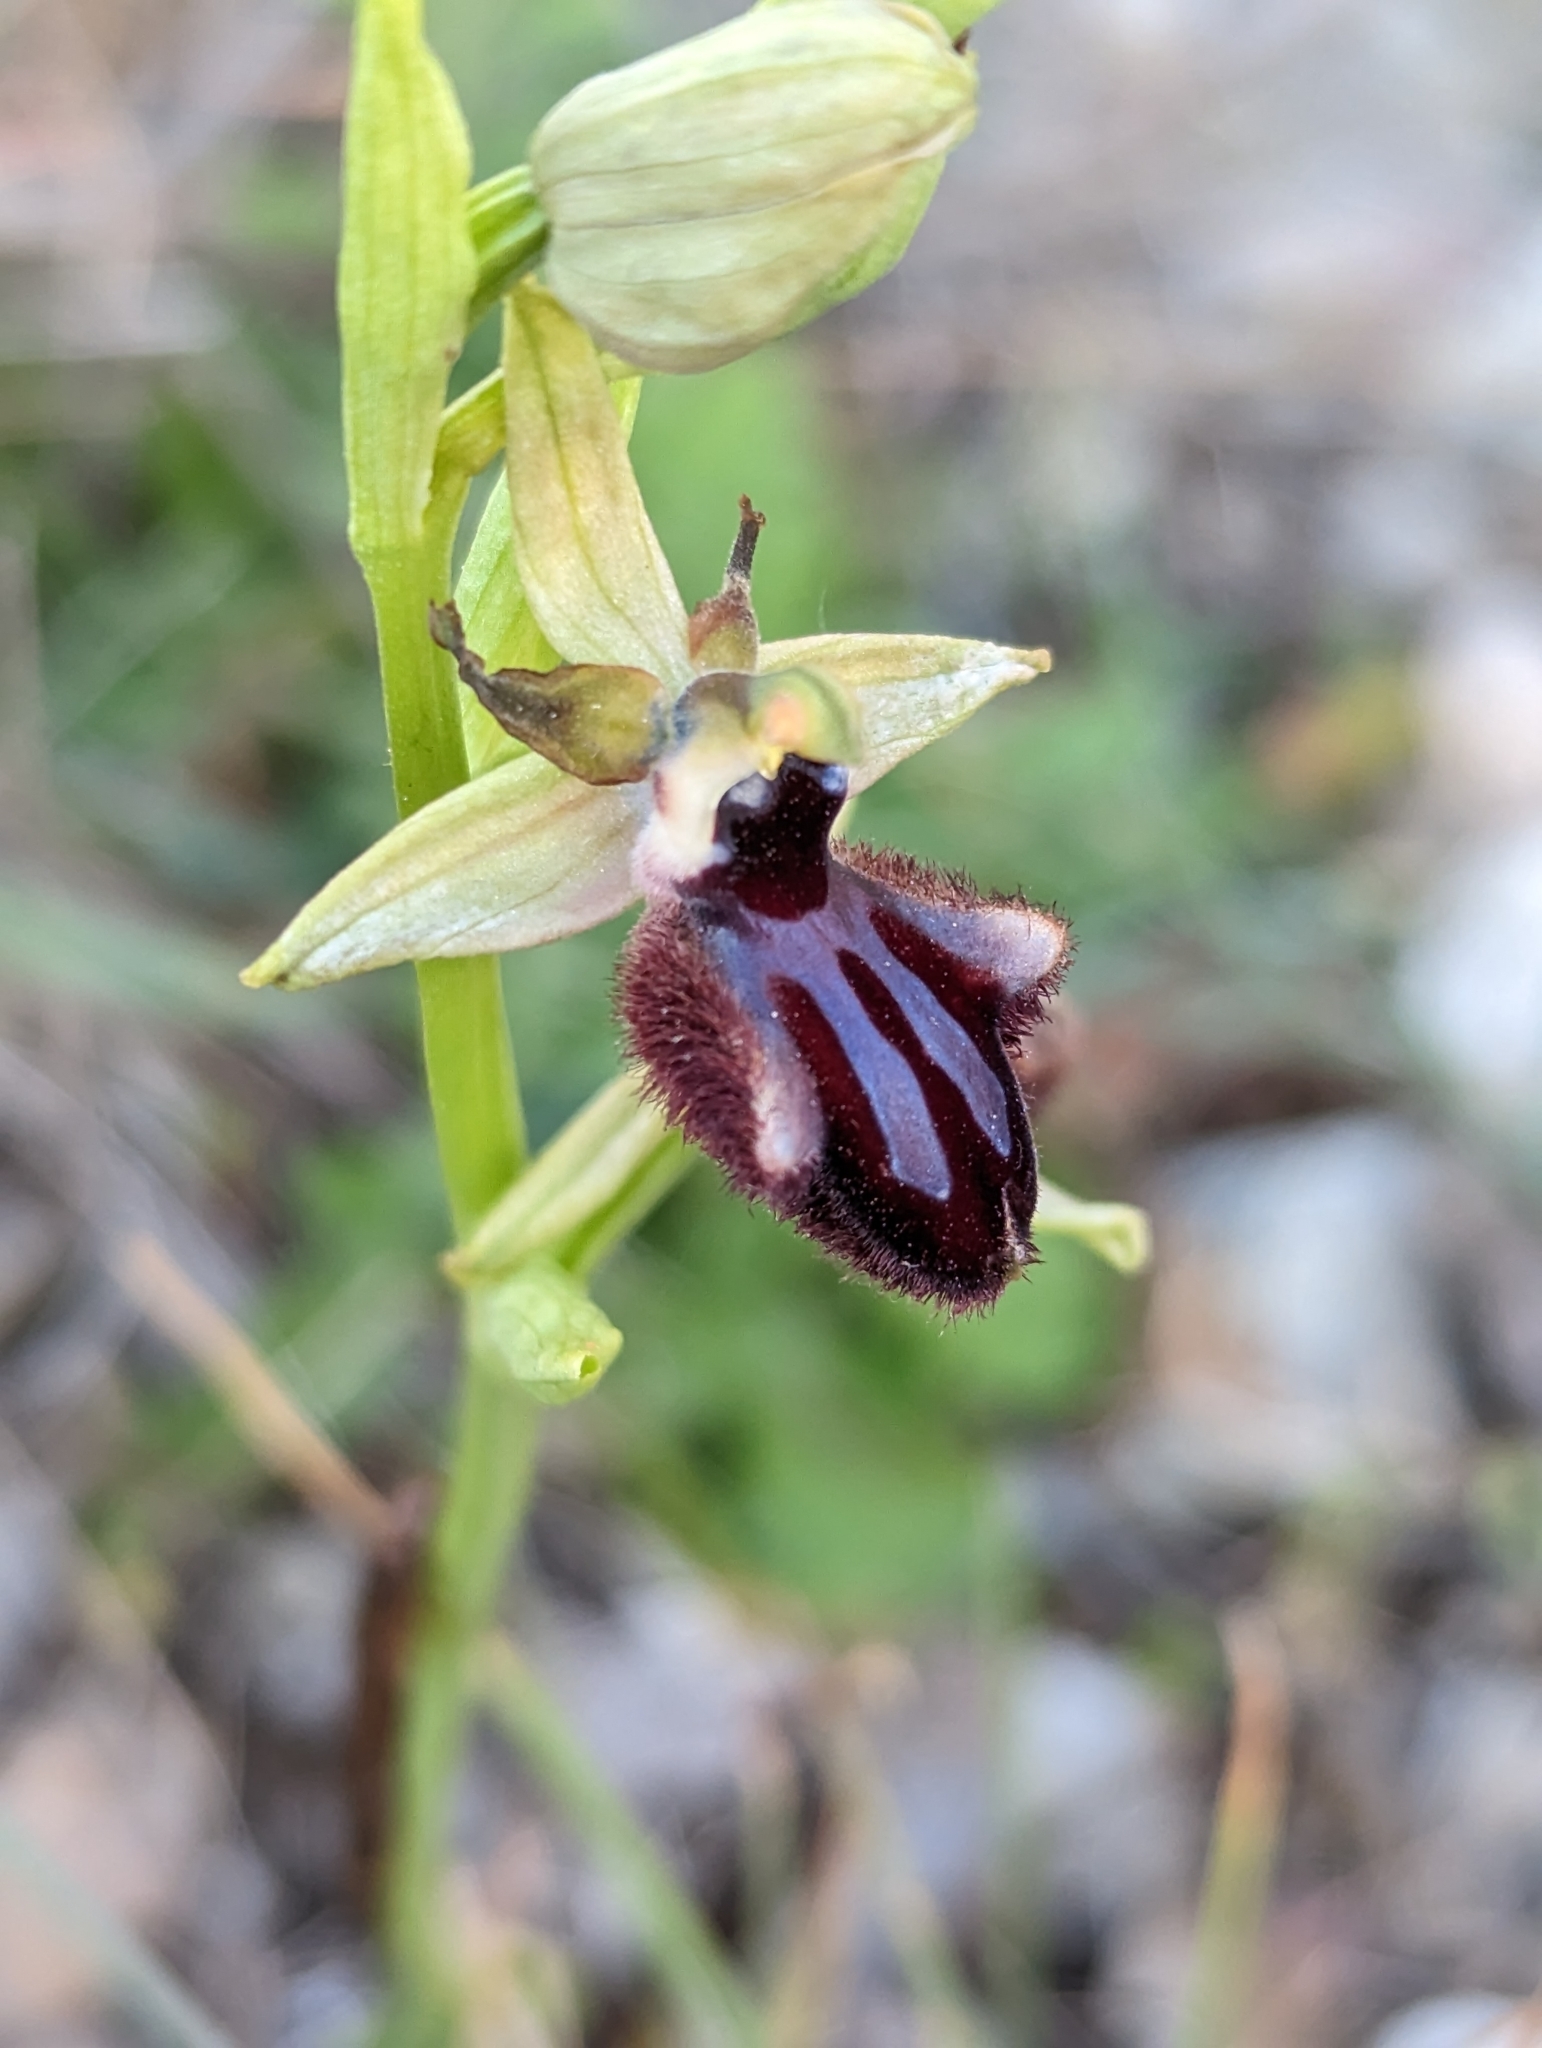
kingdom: Plantae
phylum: Tracheophyta
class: Liliopsida
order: Asparagales
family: Orchidaceae
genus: Ophrys
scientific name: Ophrys sphegodes
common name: Early spider-orchid
